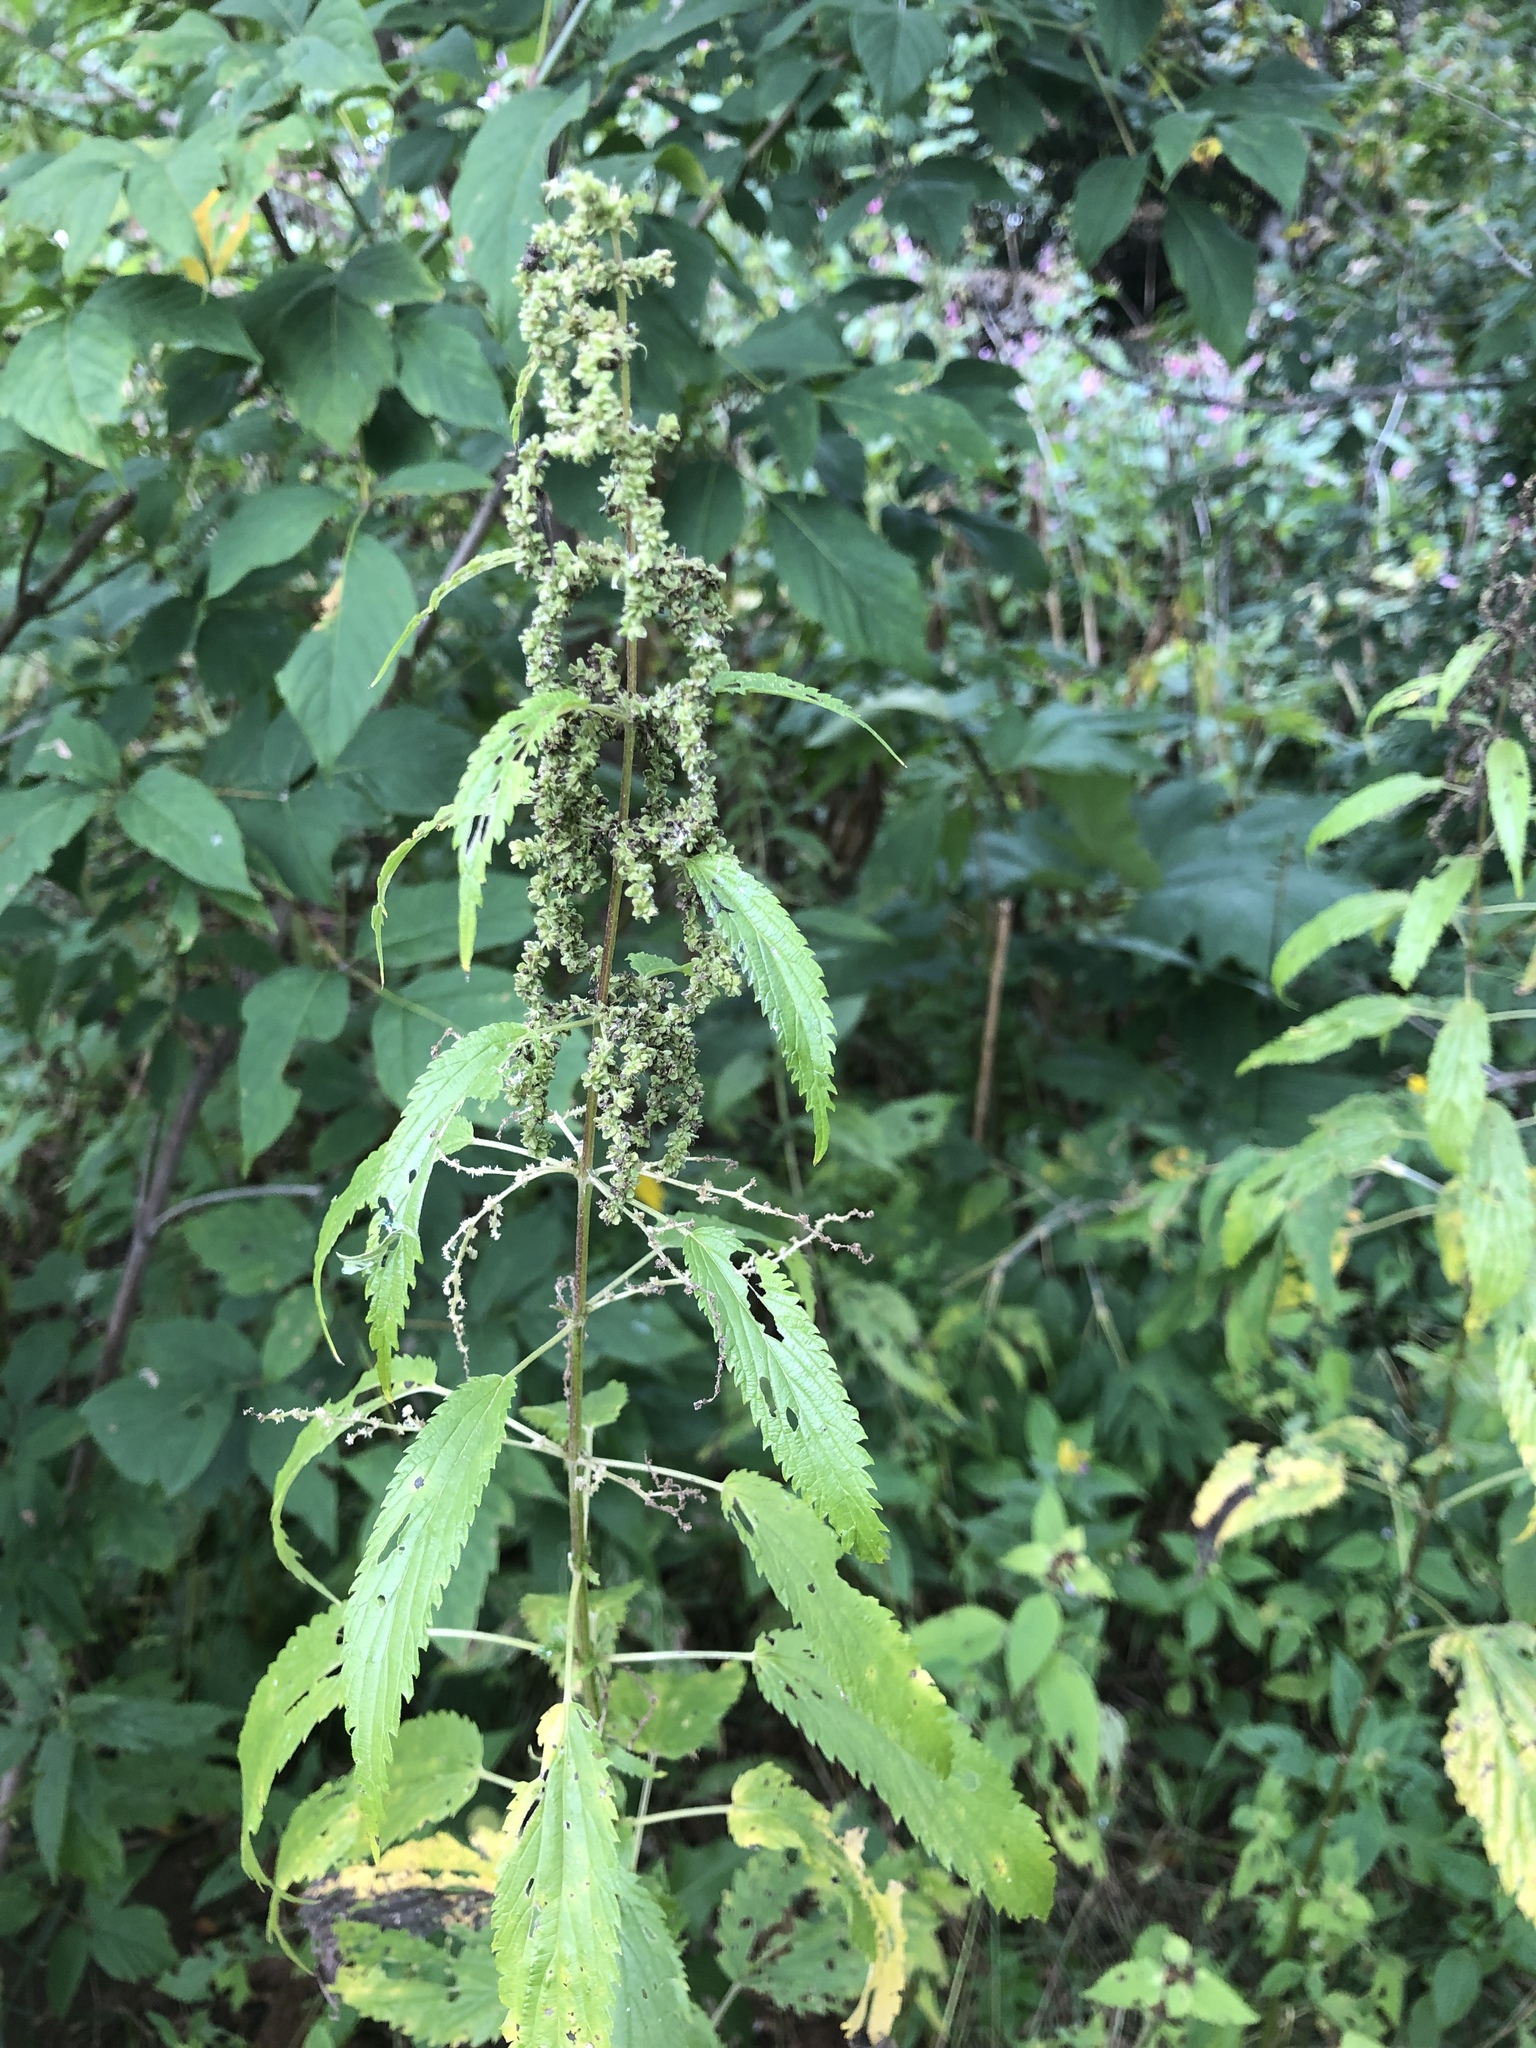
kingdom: Plantae
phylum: Tracheophyta
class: Magnoliopsida
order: Rosales
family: Urticaceae
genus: Urtica
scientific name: Urtica dioica
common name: Common nettle
